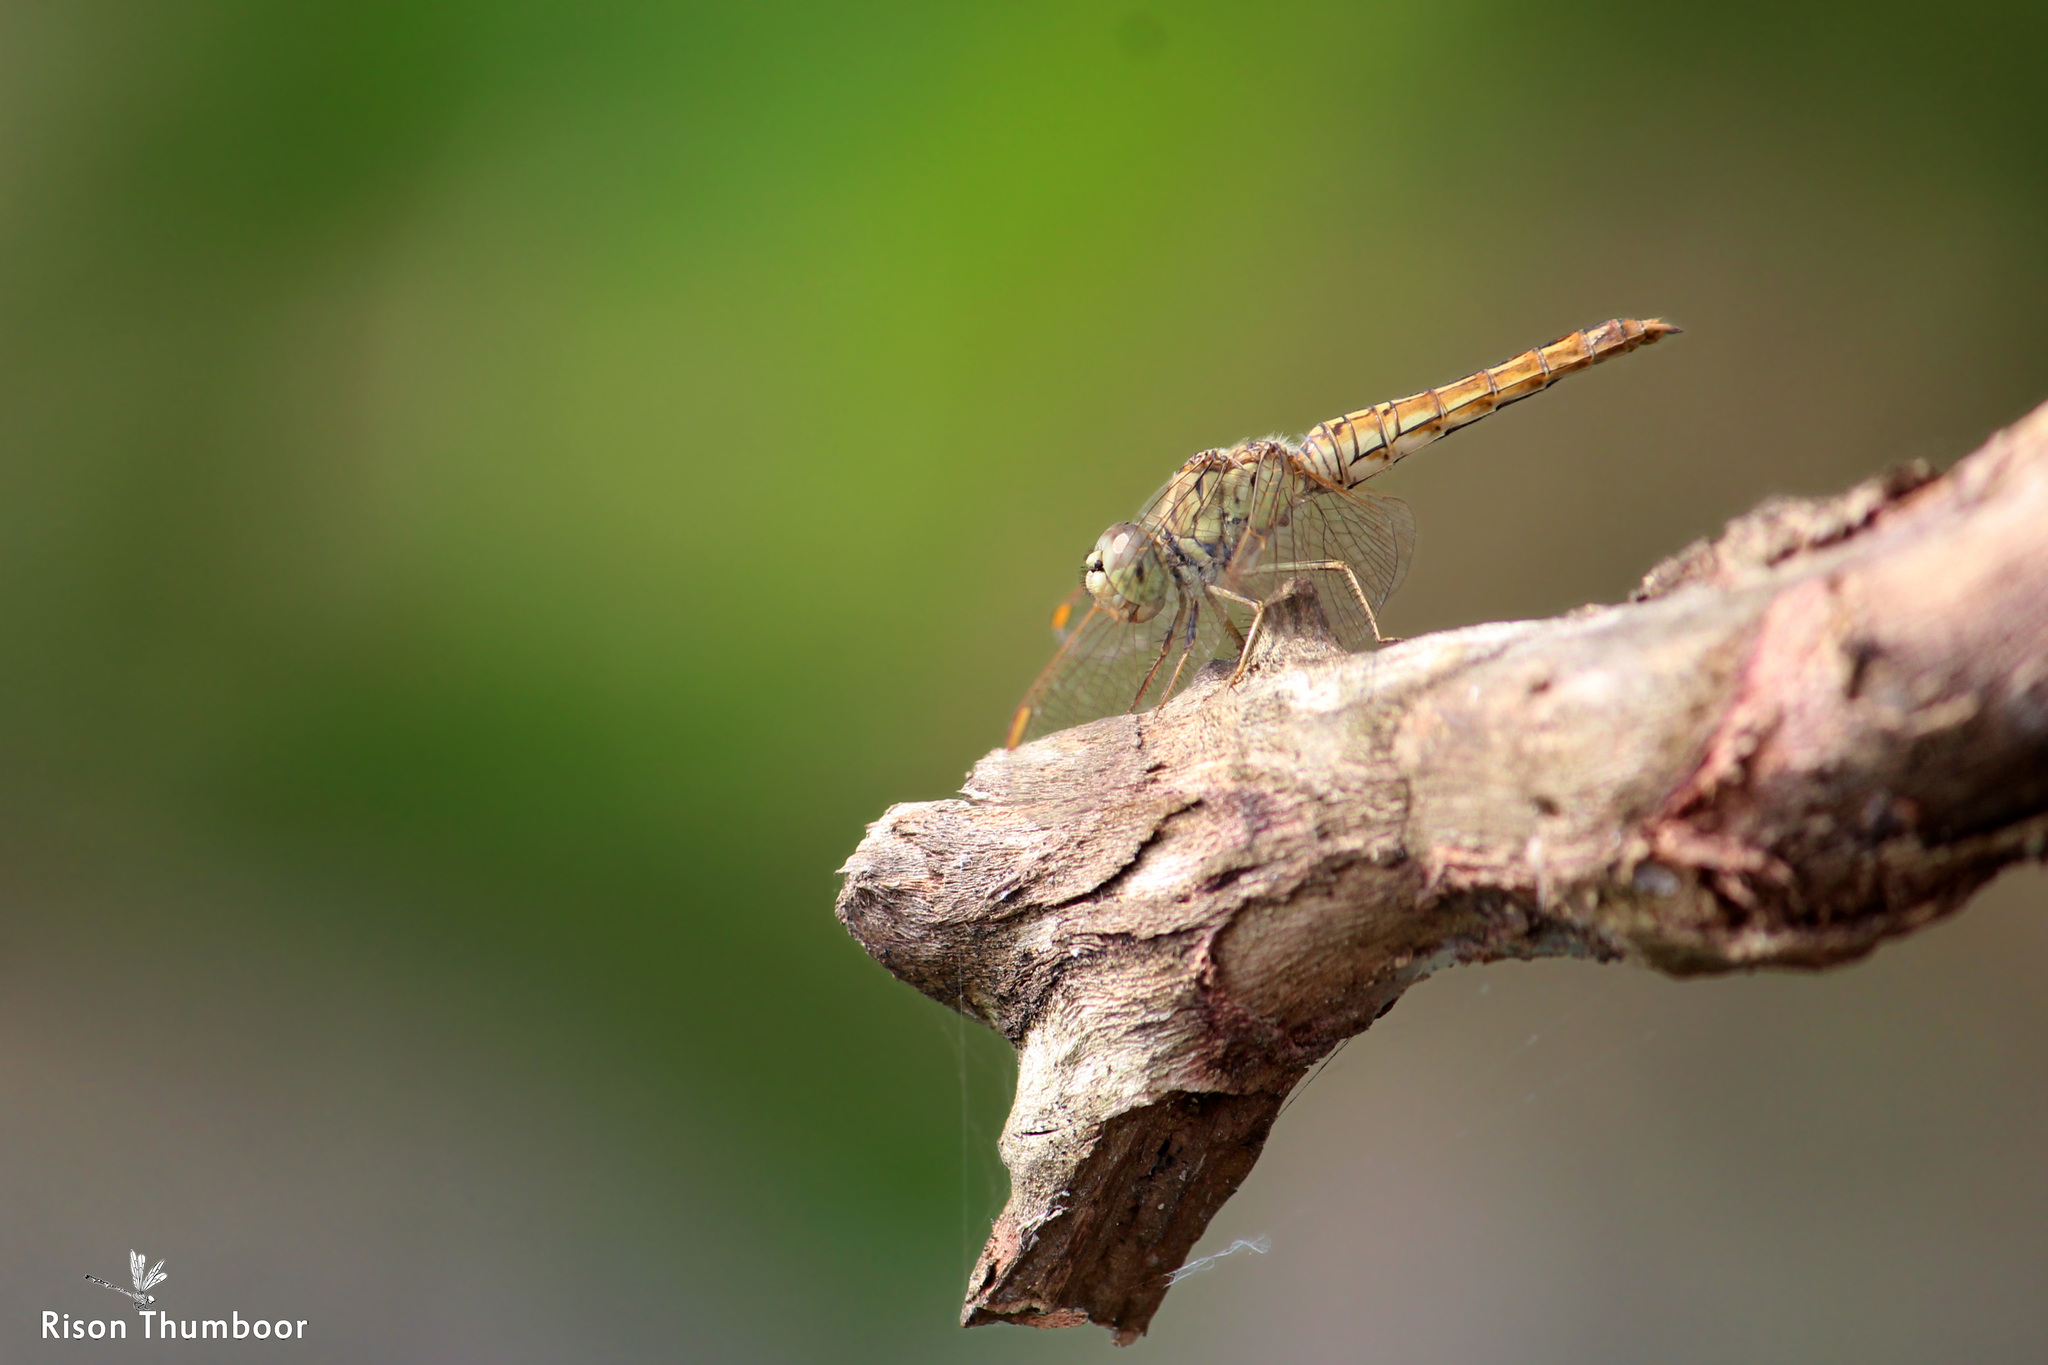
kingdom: Animalia
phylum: Arthropoda
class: Insecta
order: Odonata
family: Libellulidae
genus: Brachythemis
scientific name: Brachythemis contaminata
